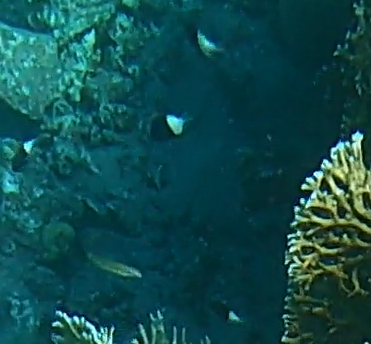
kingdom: Animalia
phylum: Chordata
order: Perciformes
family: Pomacentridae
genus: Chromis
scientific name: Chromis dimidiata
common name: Half-and-half chromis
